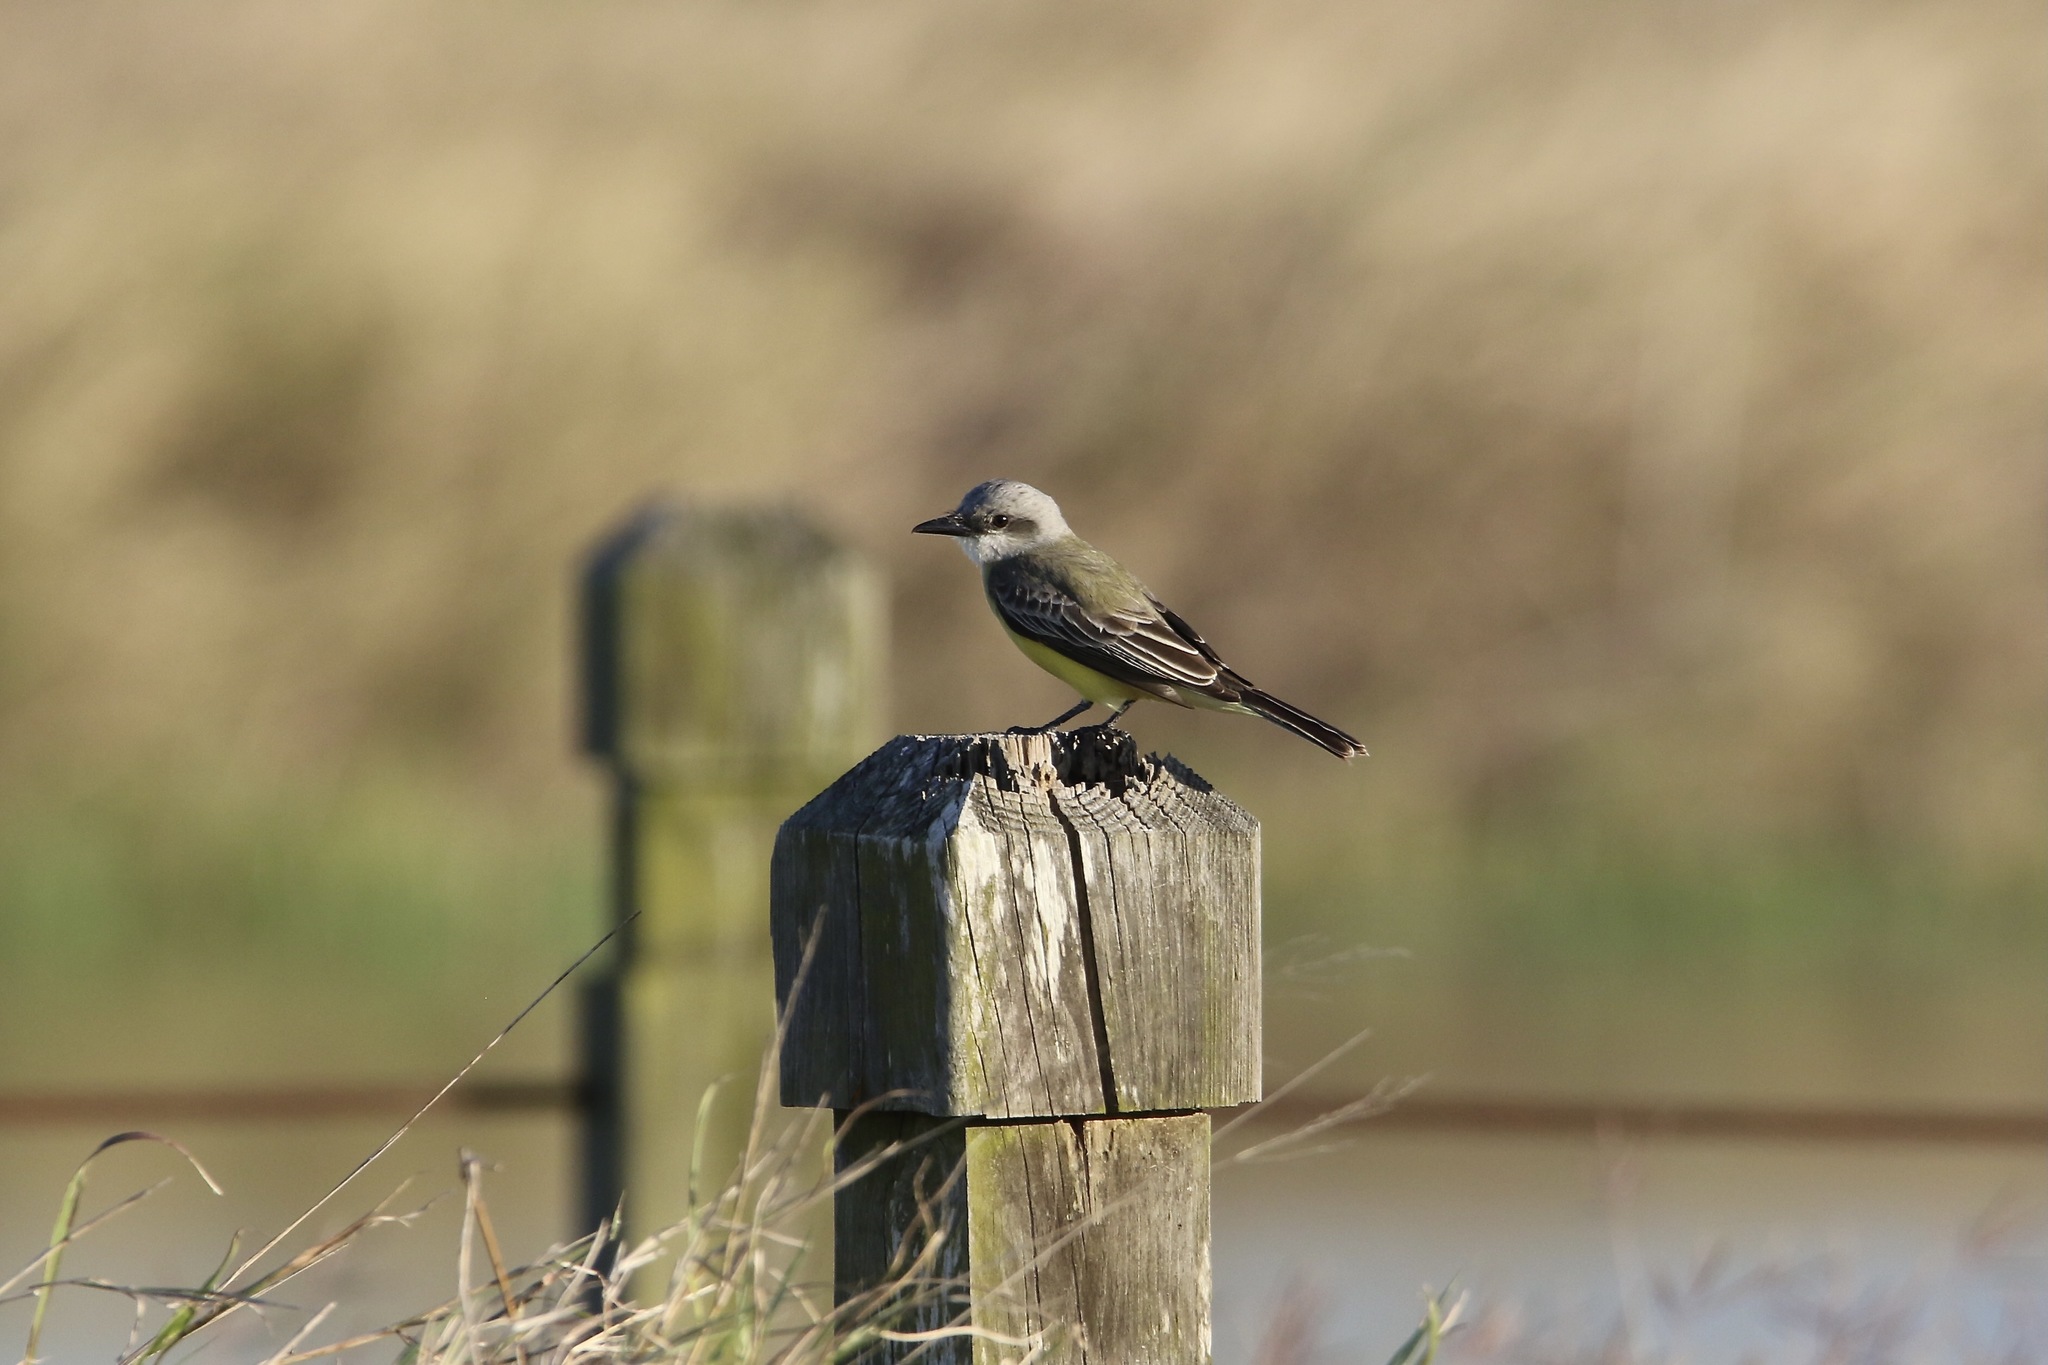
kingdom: Animalia
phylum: Chordata
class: Aves
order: Passeriformes
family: Tyrannidae
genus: Tyrannus
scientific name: Tyrannus melancholicus
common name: Tropical kingbird
